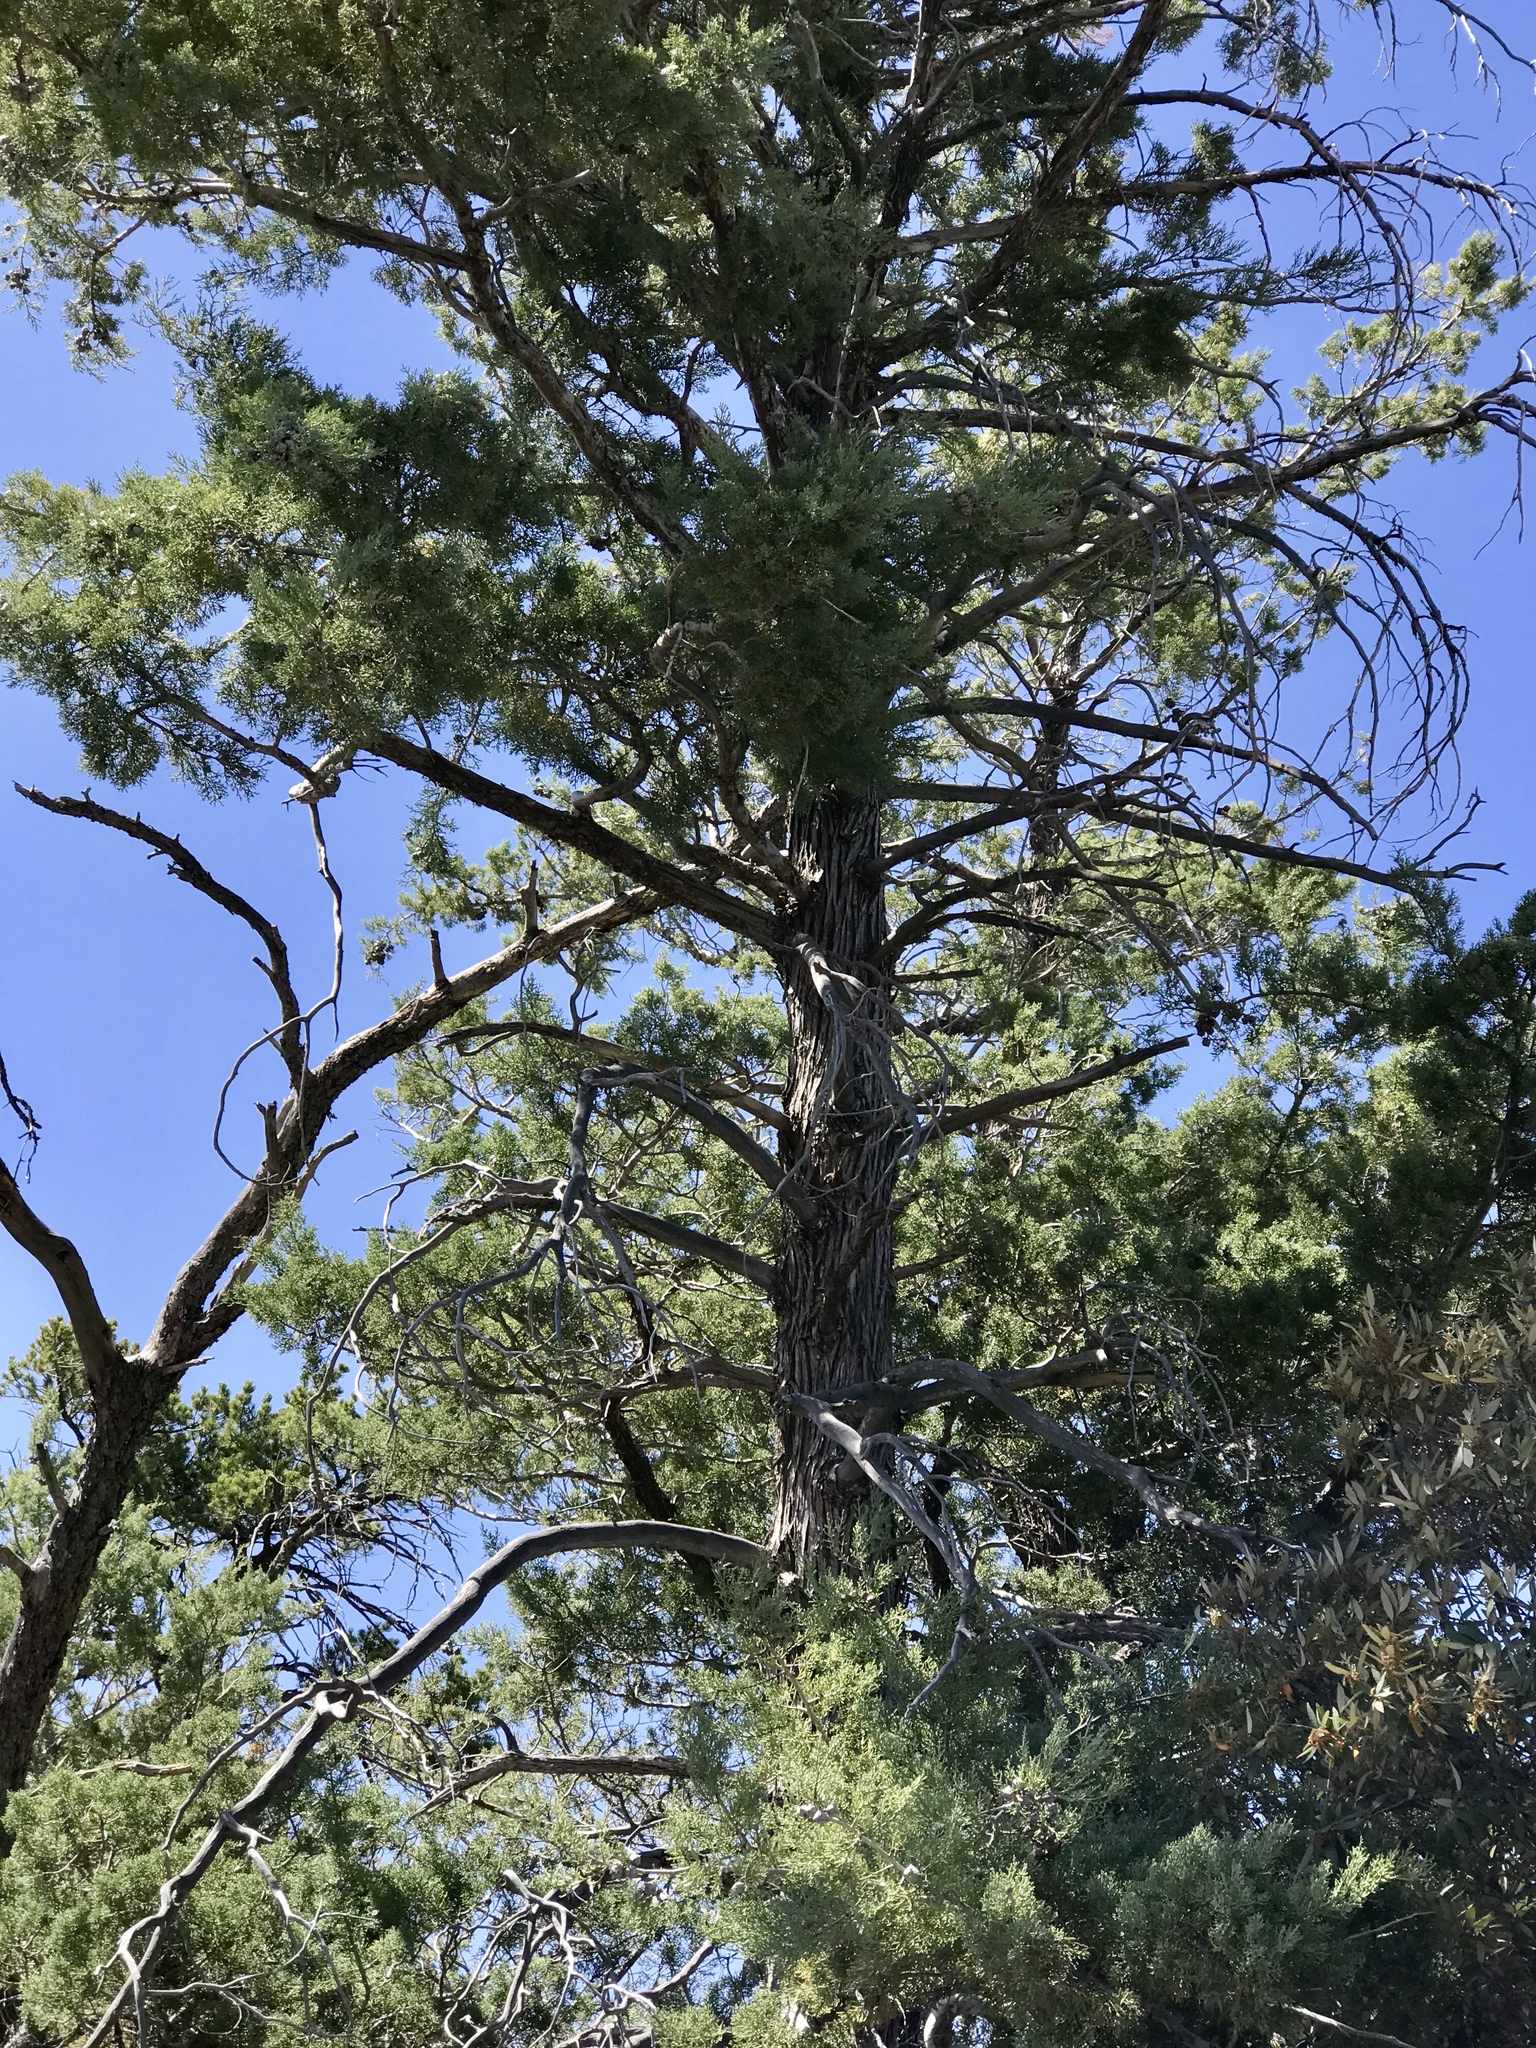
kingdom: Plantae
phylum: Tracheophyta
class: Pinopsida
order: Pinales
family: Cupressaceae
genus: Cupressus
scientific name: Cupressus arizonica
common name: Arizona cypress
